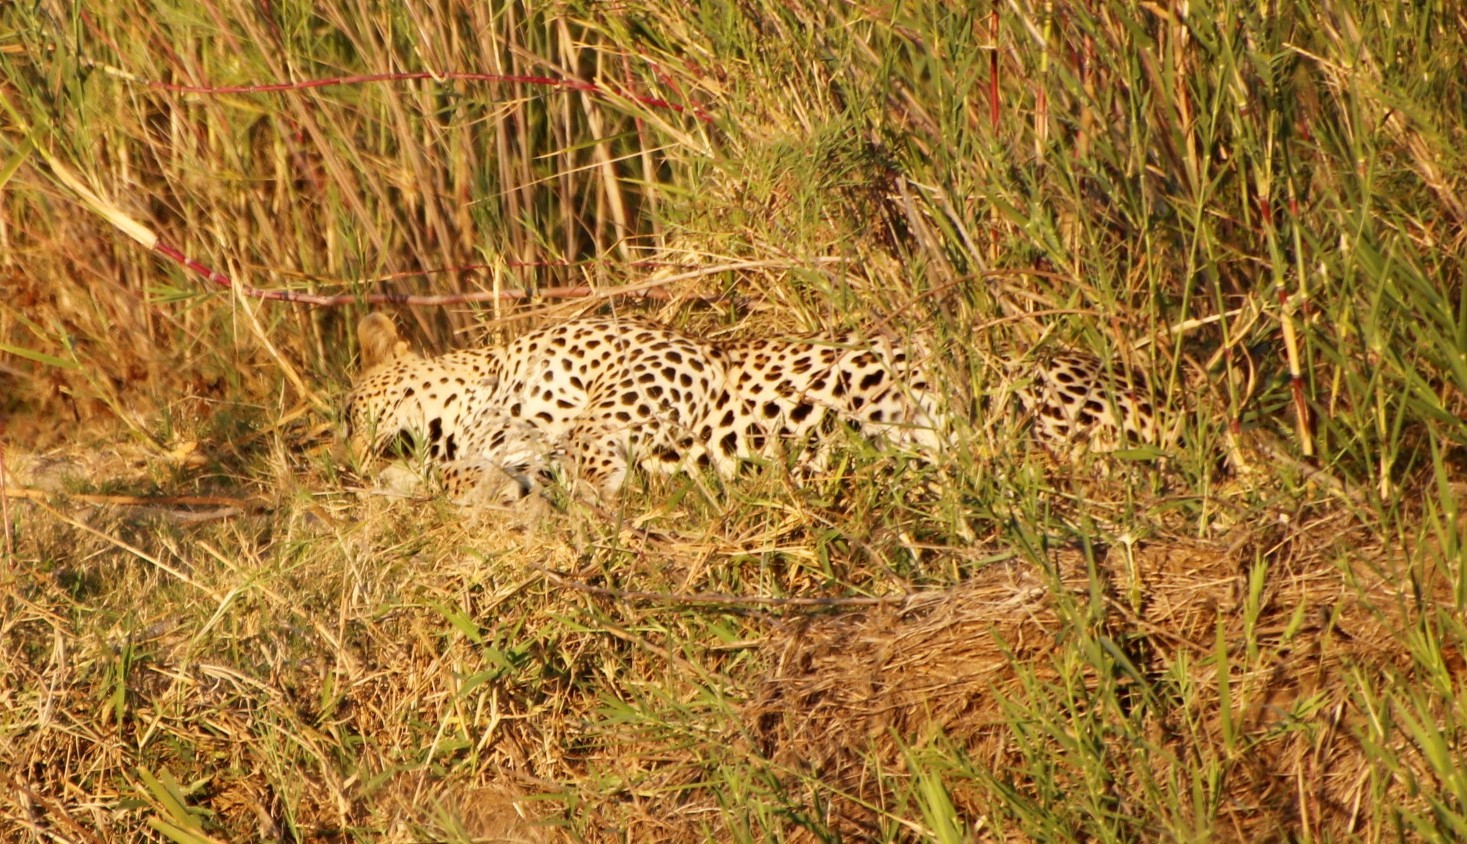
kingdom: Animalia
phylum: Chordata
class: Mammalia
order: Carnivora
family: Felidae
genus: Panthera
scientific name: Panthera pardus
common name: Leopard
